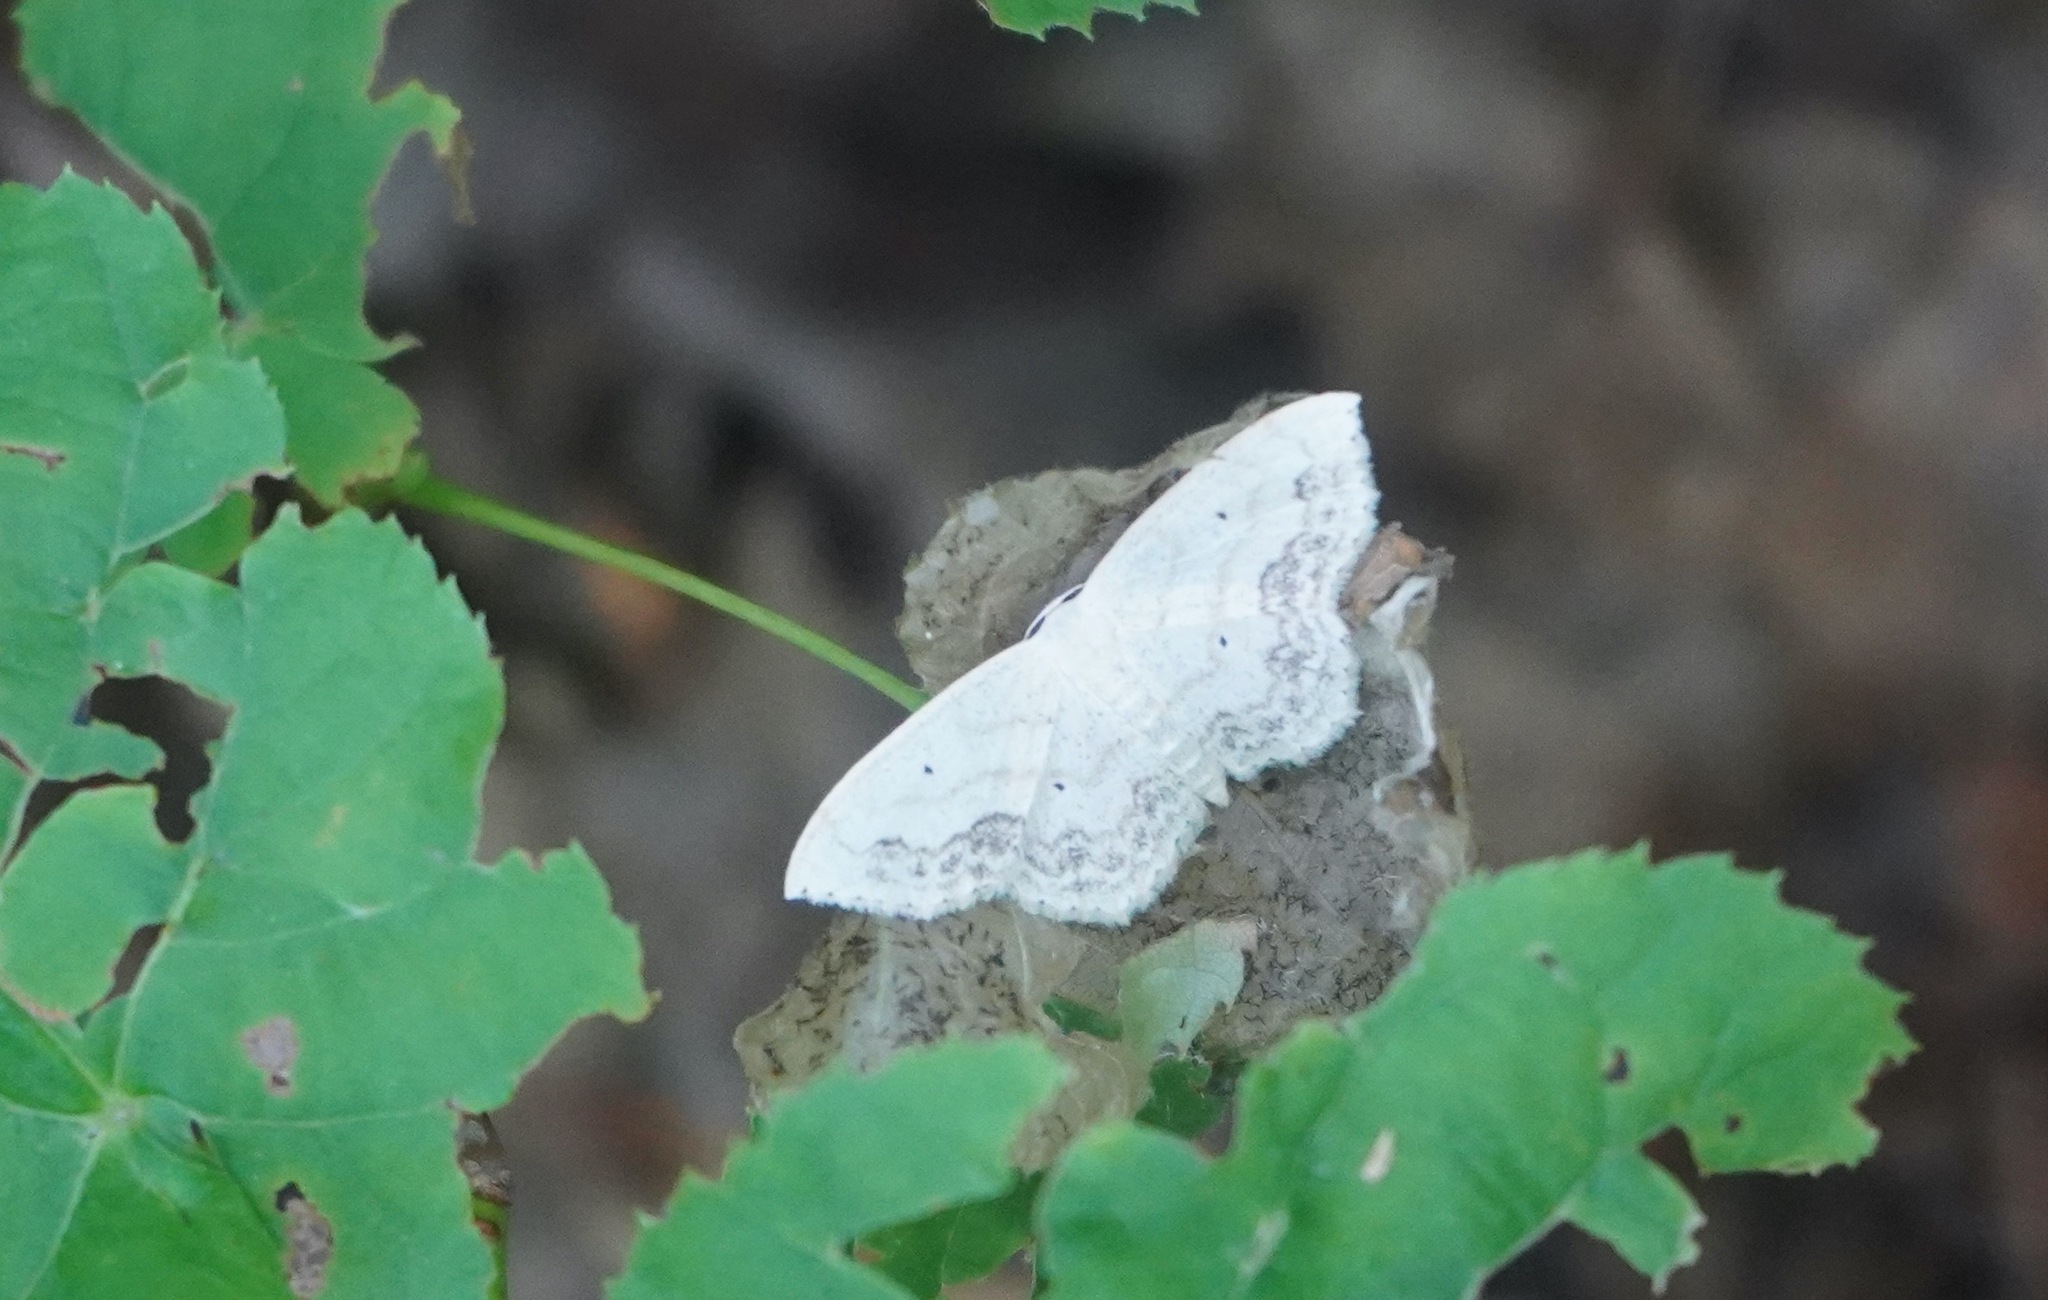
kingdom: Animalia
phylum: Arthropoda
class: Insecta
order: Lepidoptera
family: Geometridae
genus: Scopula
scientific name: Scopula limboundata
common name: Large lace border
